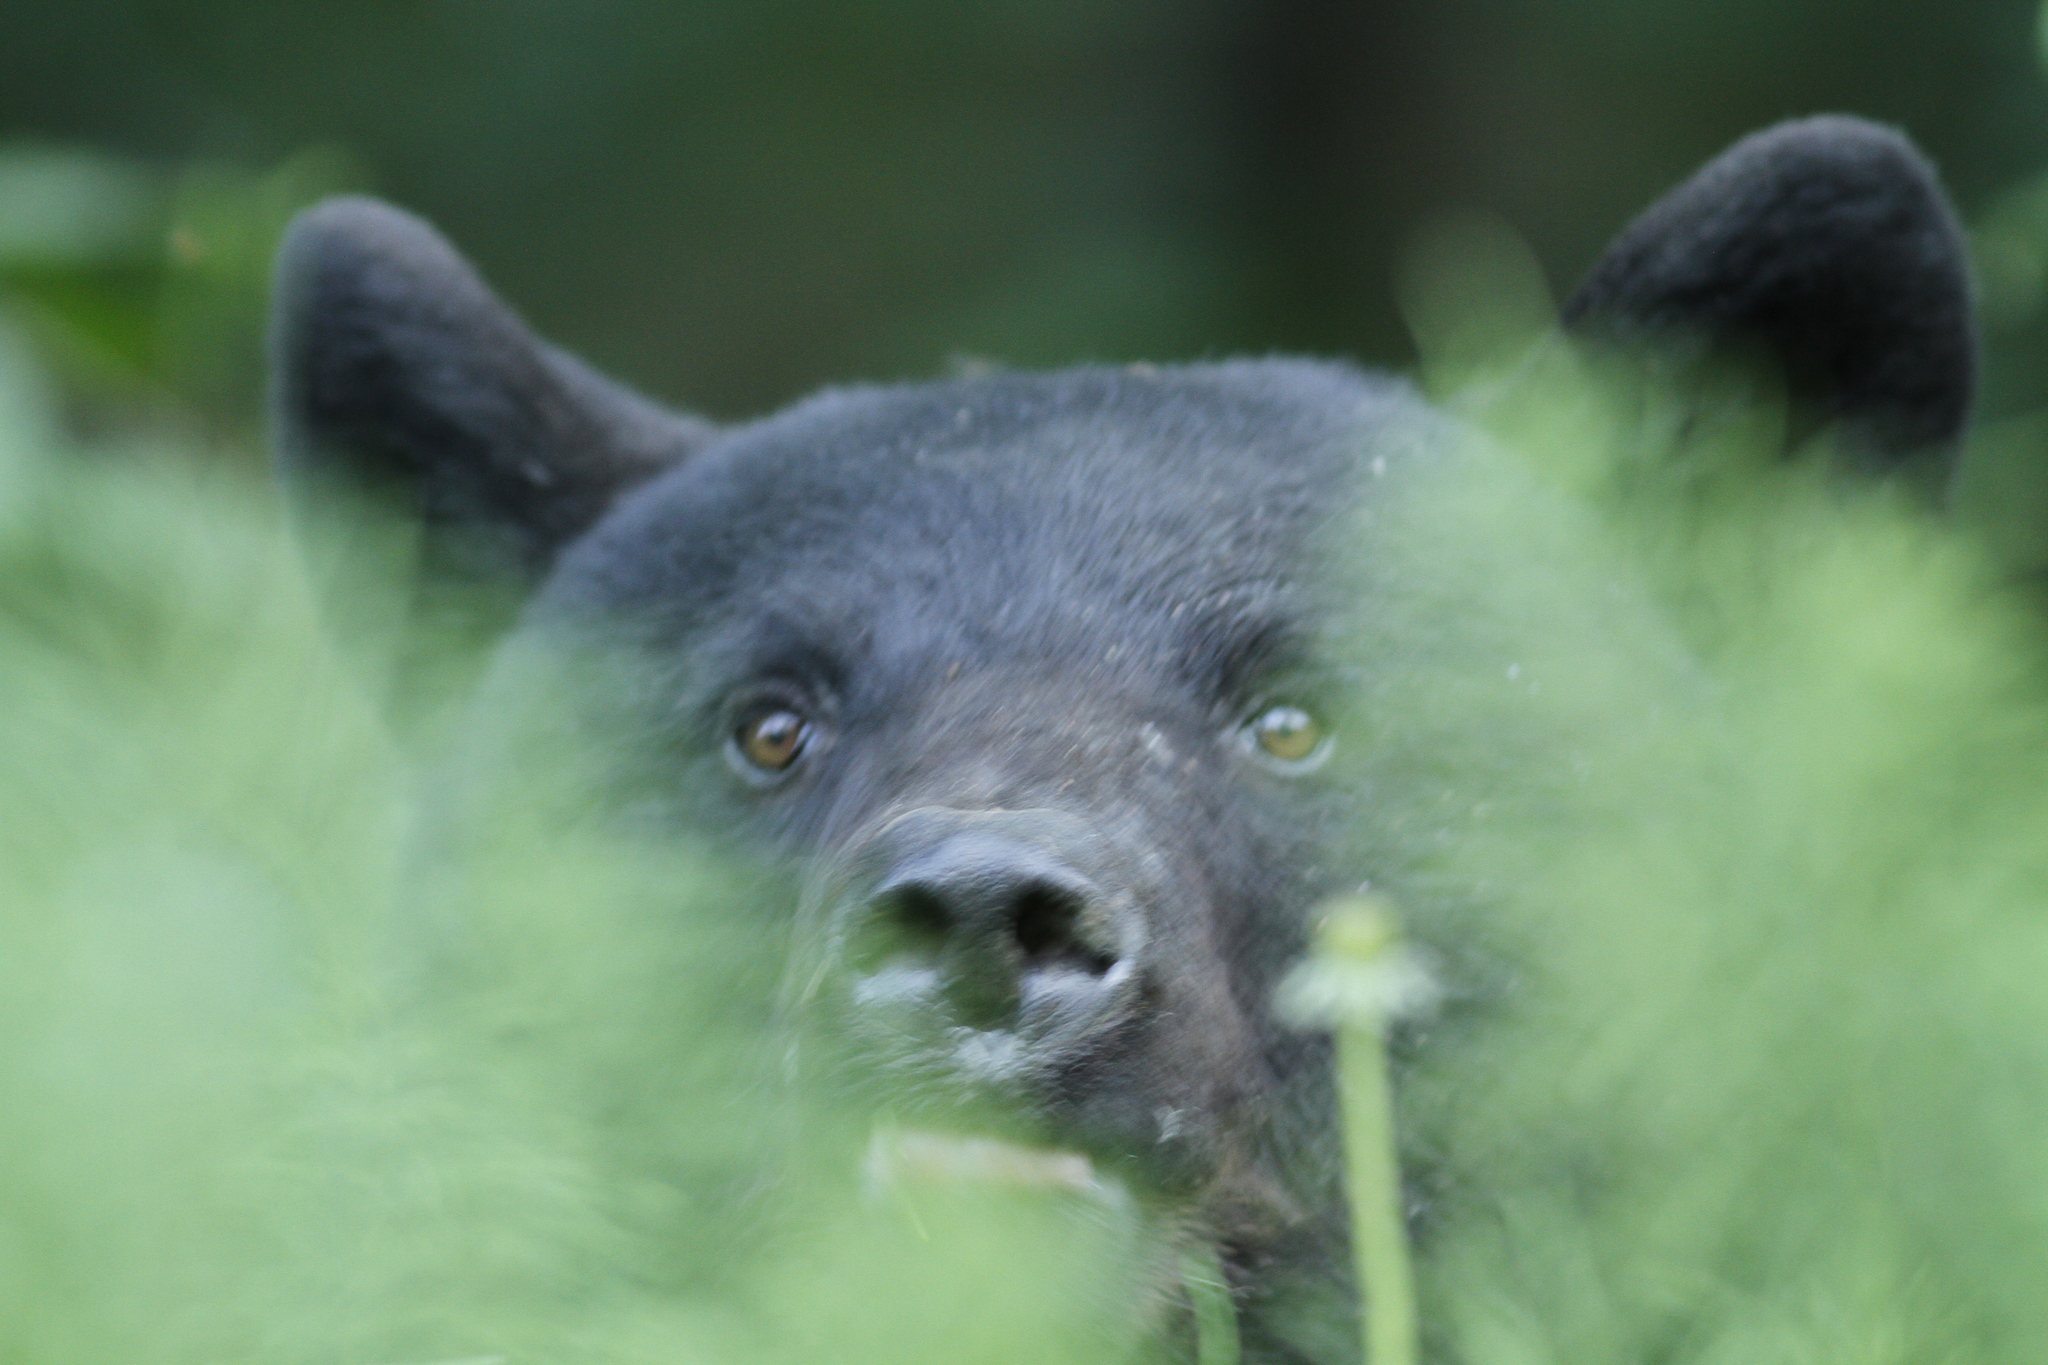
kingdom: Animalia
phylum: Chordata
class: Mammalia
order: Carnivora
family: Ursidae
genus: Ursus
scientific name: Ursus americanus
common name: American black bear
